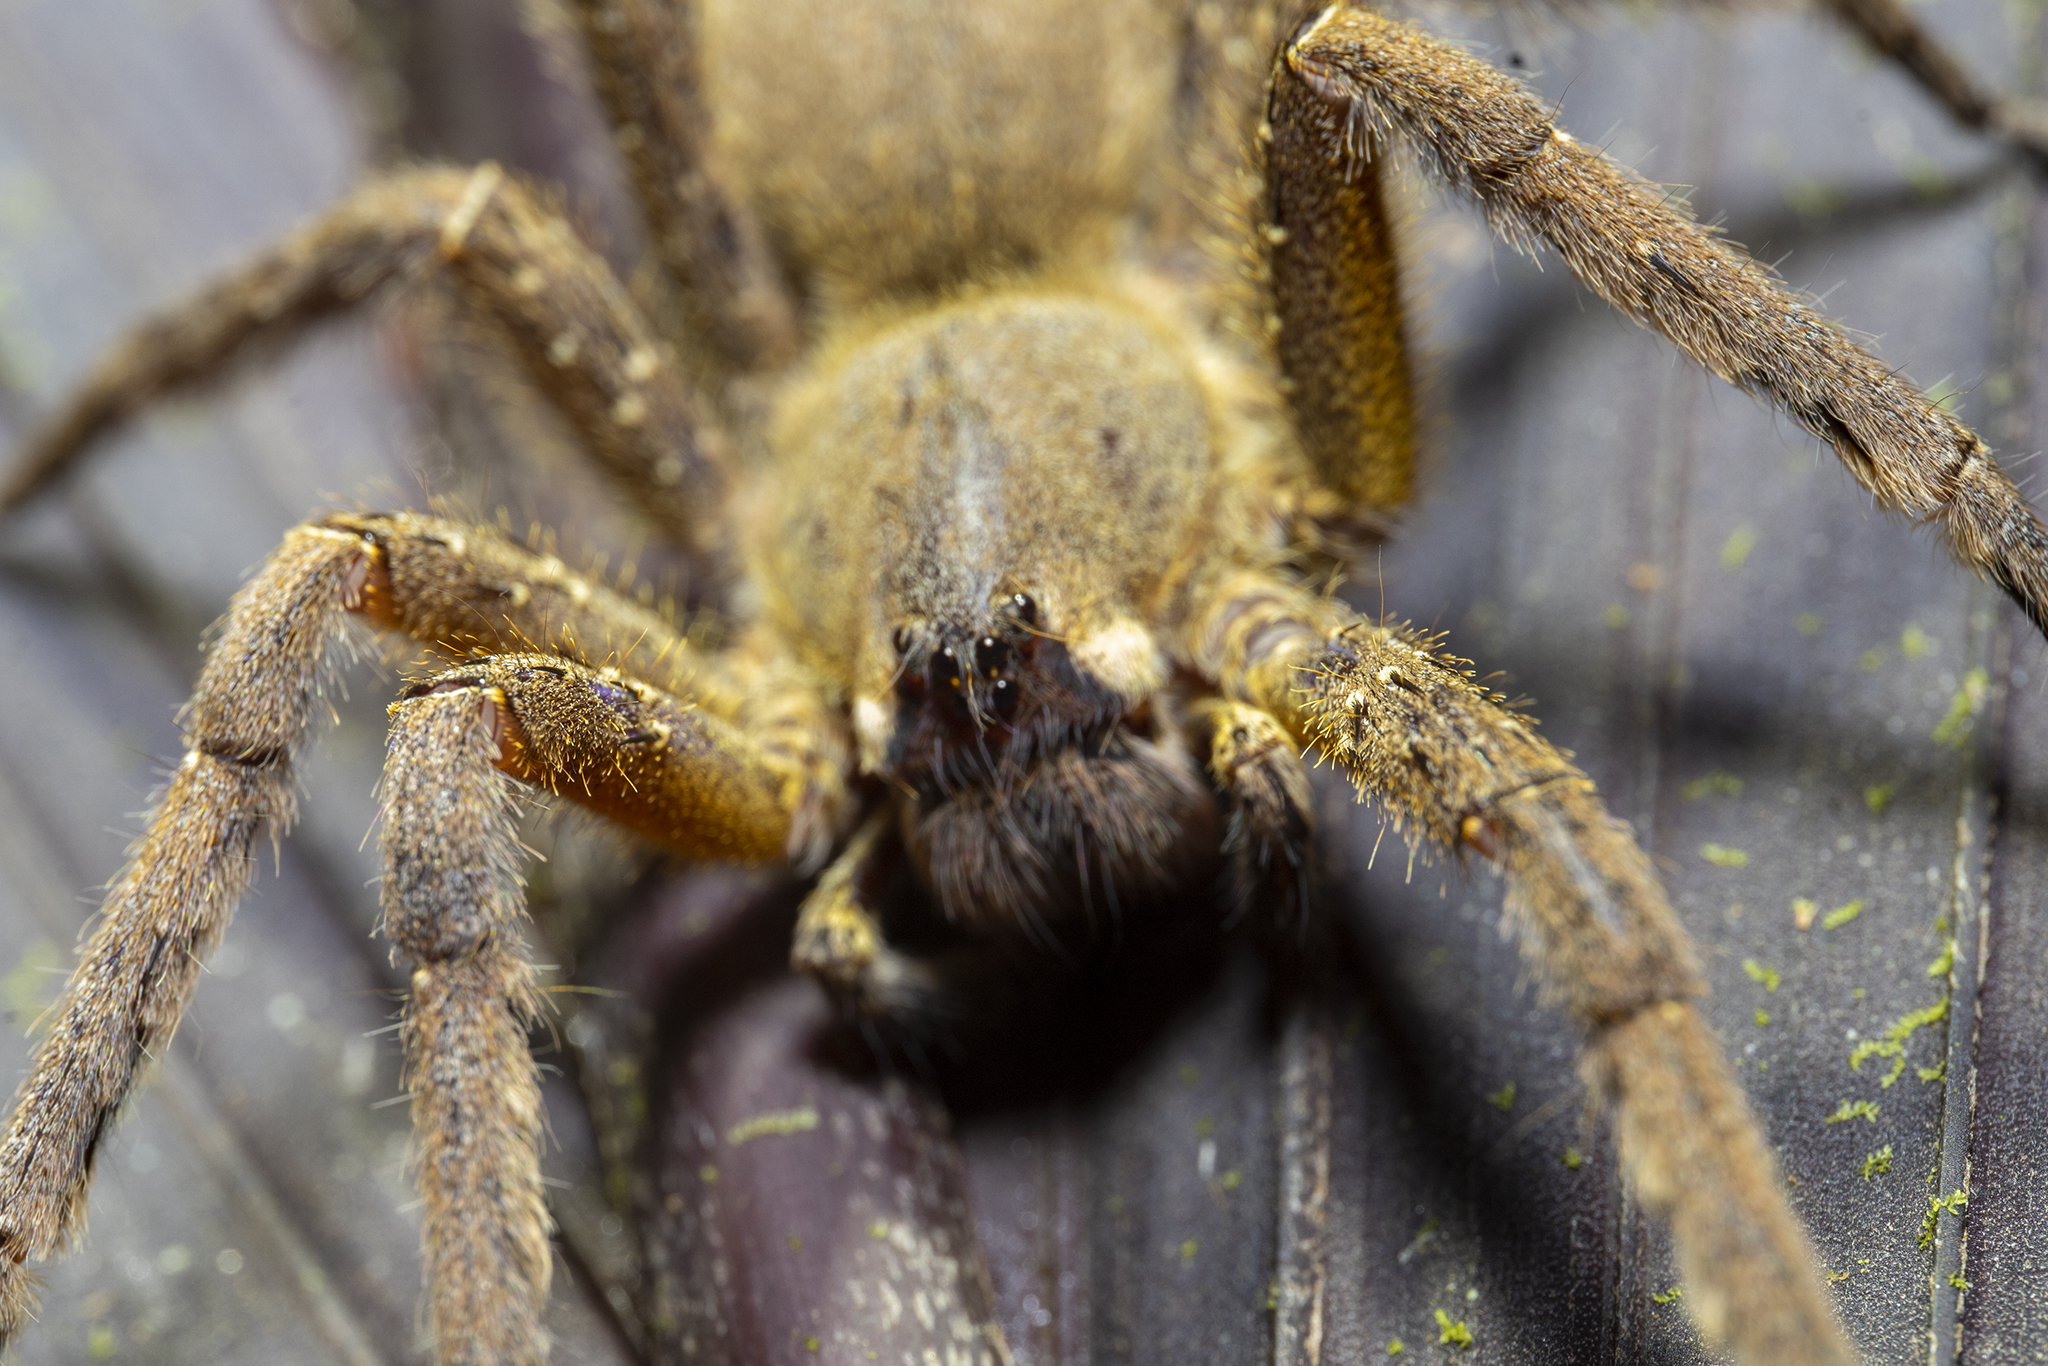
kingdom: Animalia
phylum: Arthropoda
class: Arachnida
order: Araneae
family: Ctenidae
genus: Phoneutria
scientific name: Phoneutria boliviensis
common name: Wandering spiders
